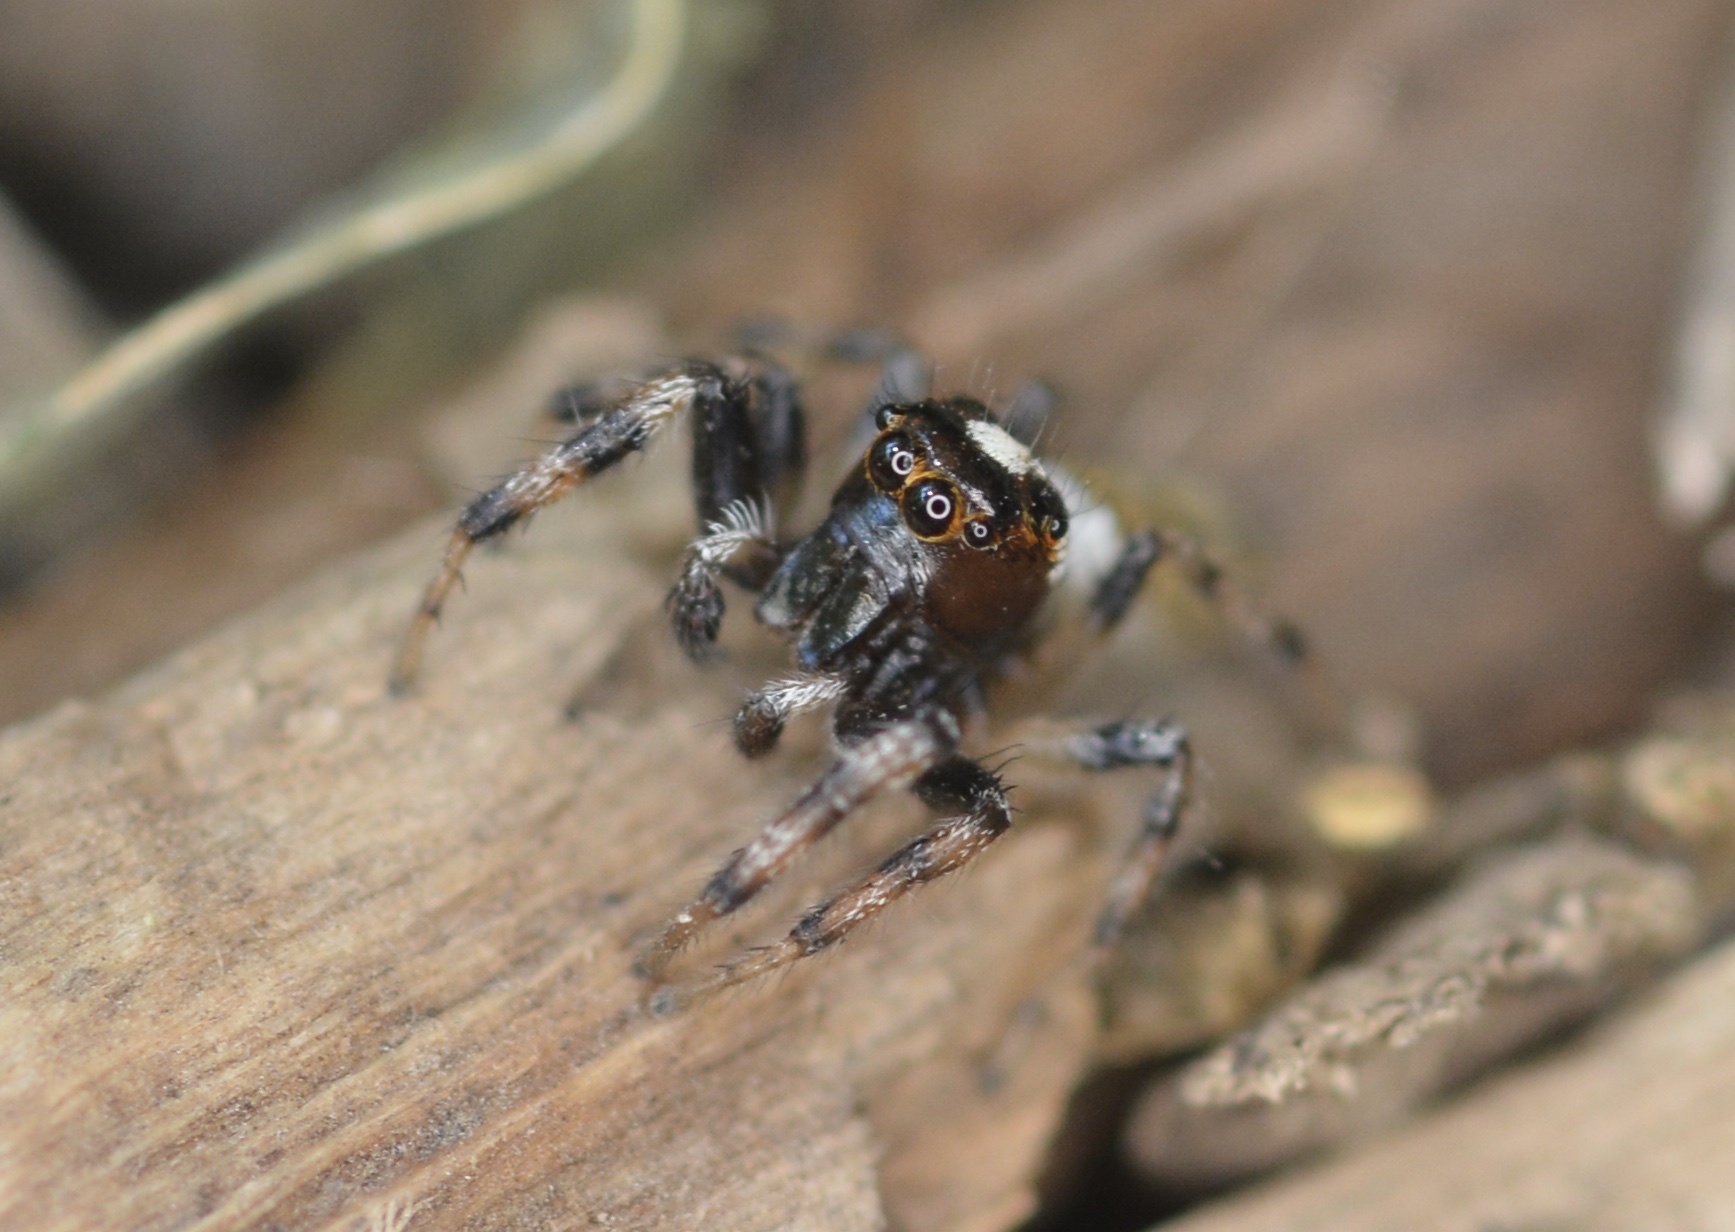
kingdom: Animalia
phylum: Arthropoda
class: Arachnida
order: Araneae
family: Salticidae
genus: Colonus
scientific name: Colonus hesperus
